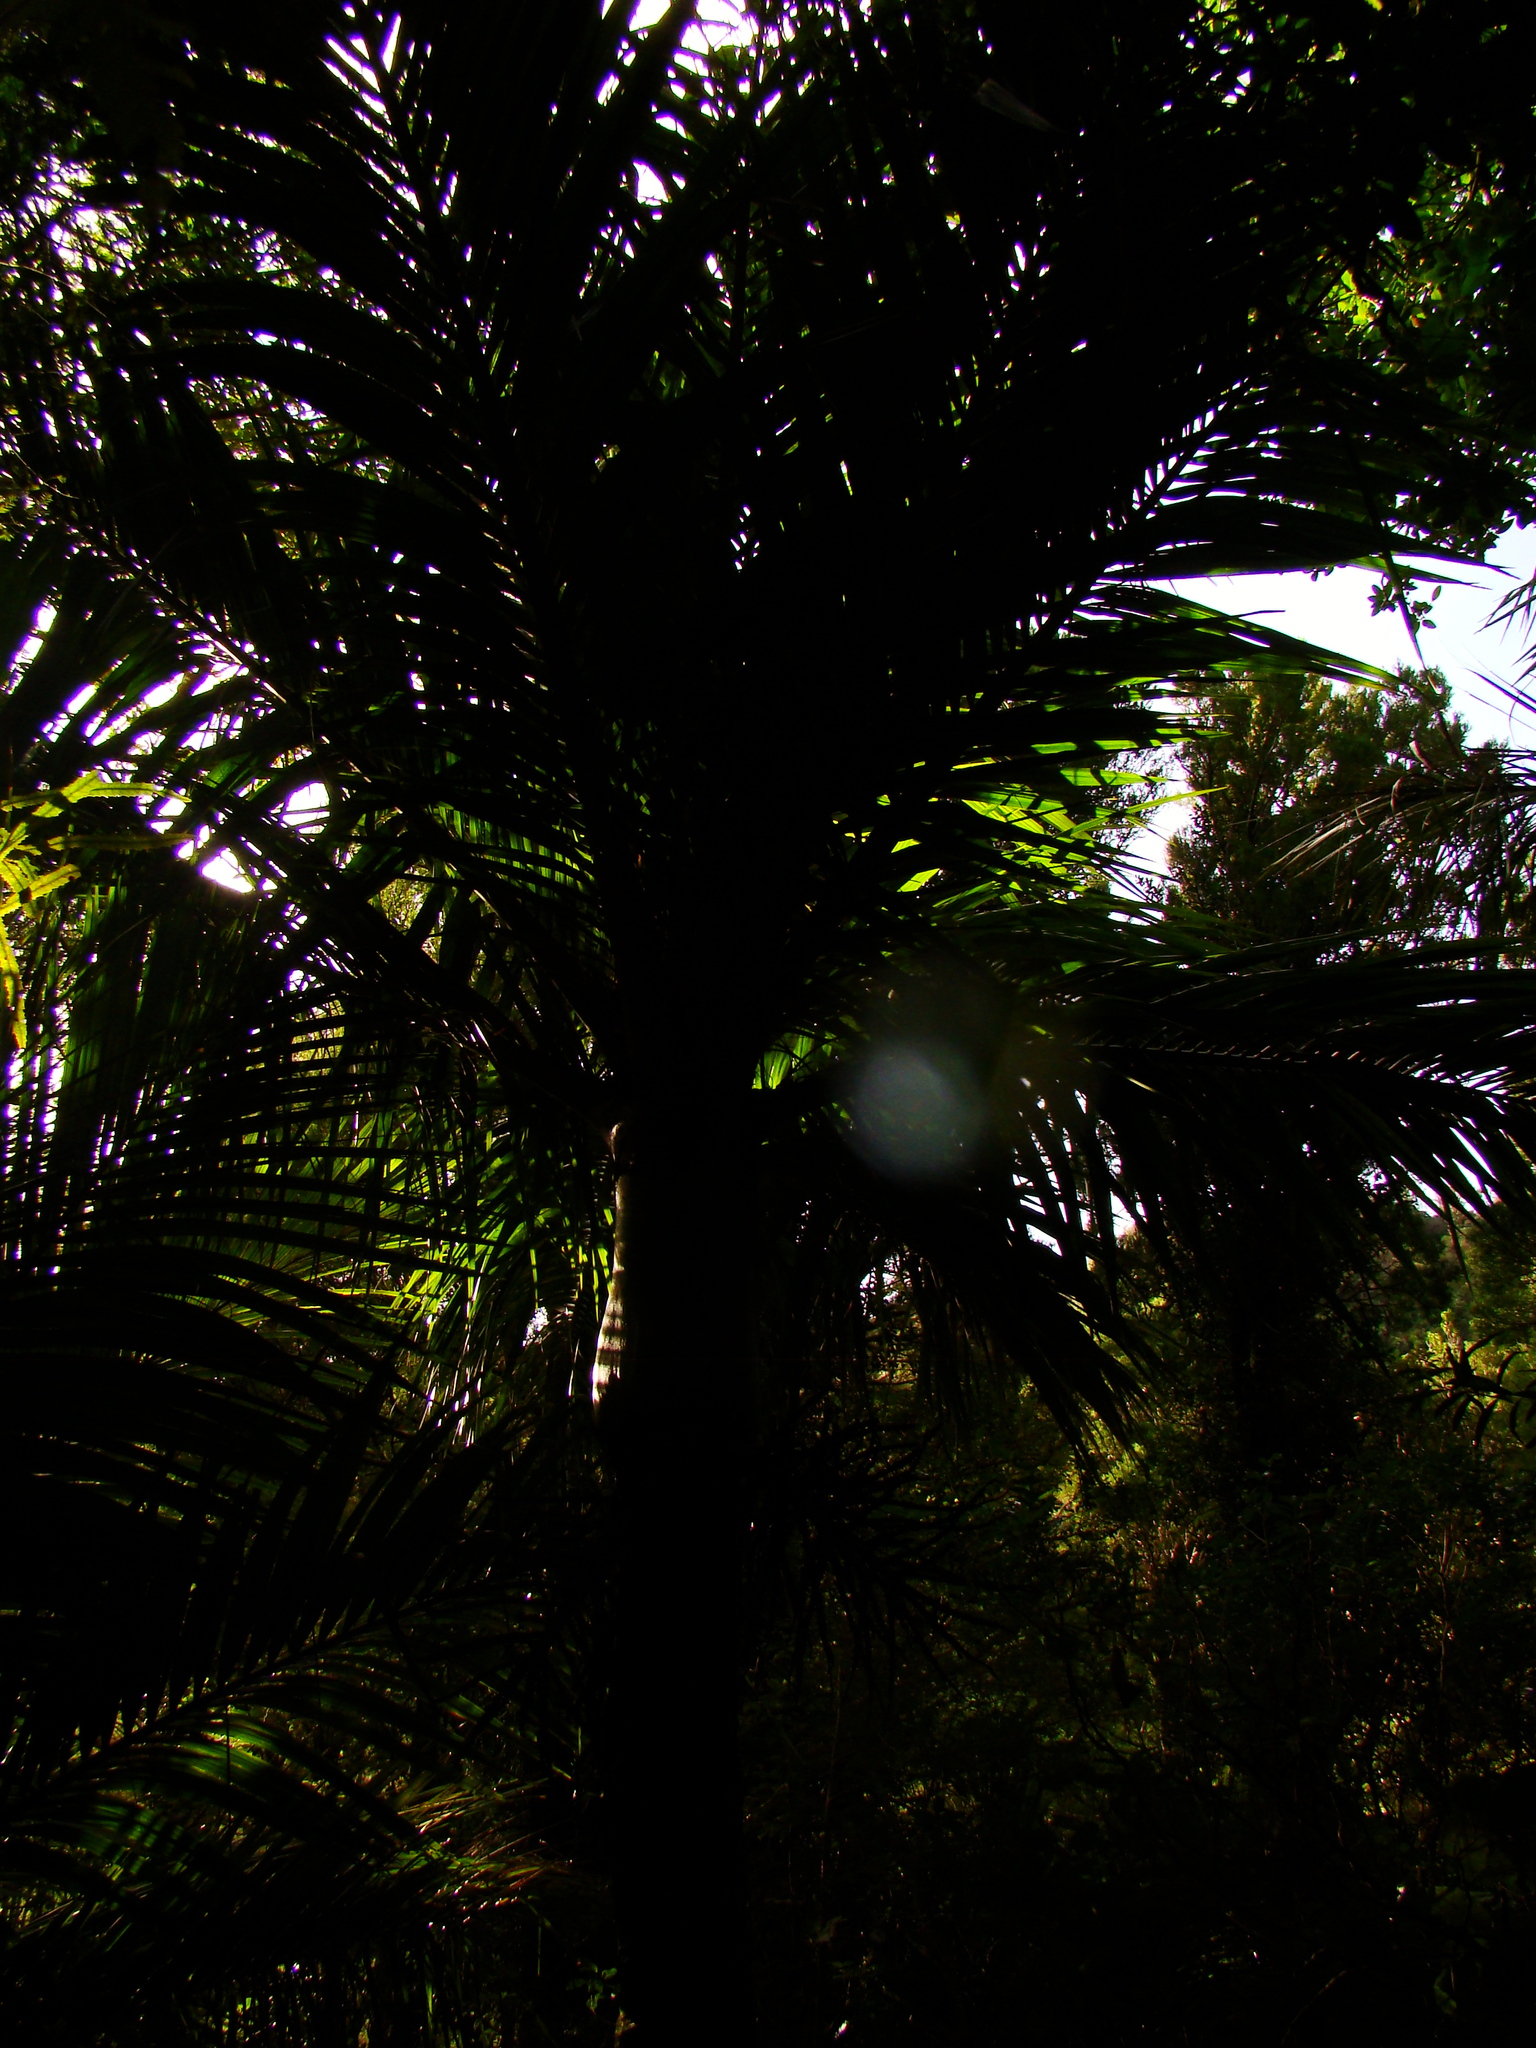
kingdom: Plantae
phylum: Tracheophyta
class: Liliopsida
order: Arecales
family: Arecaceae
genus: Rhopalostylis
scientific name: Rhopalostylis sapida
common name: Feather-duster palm
